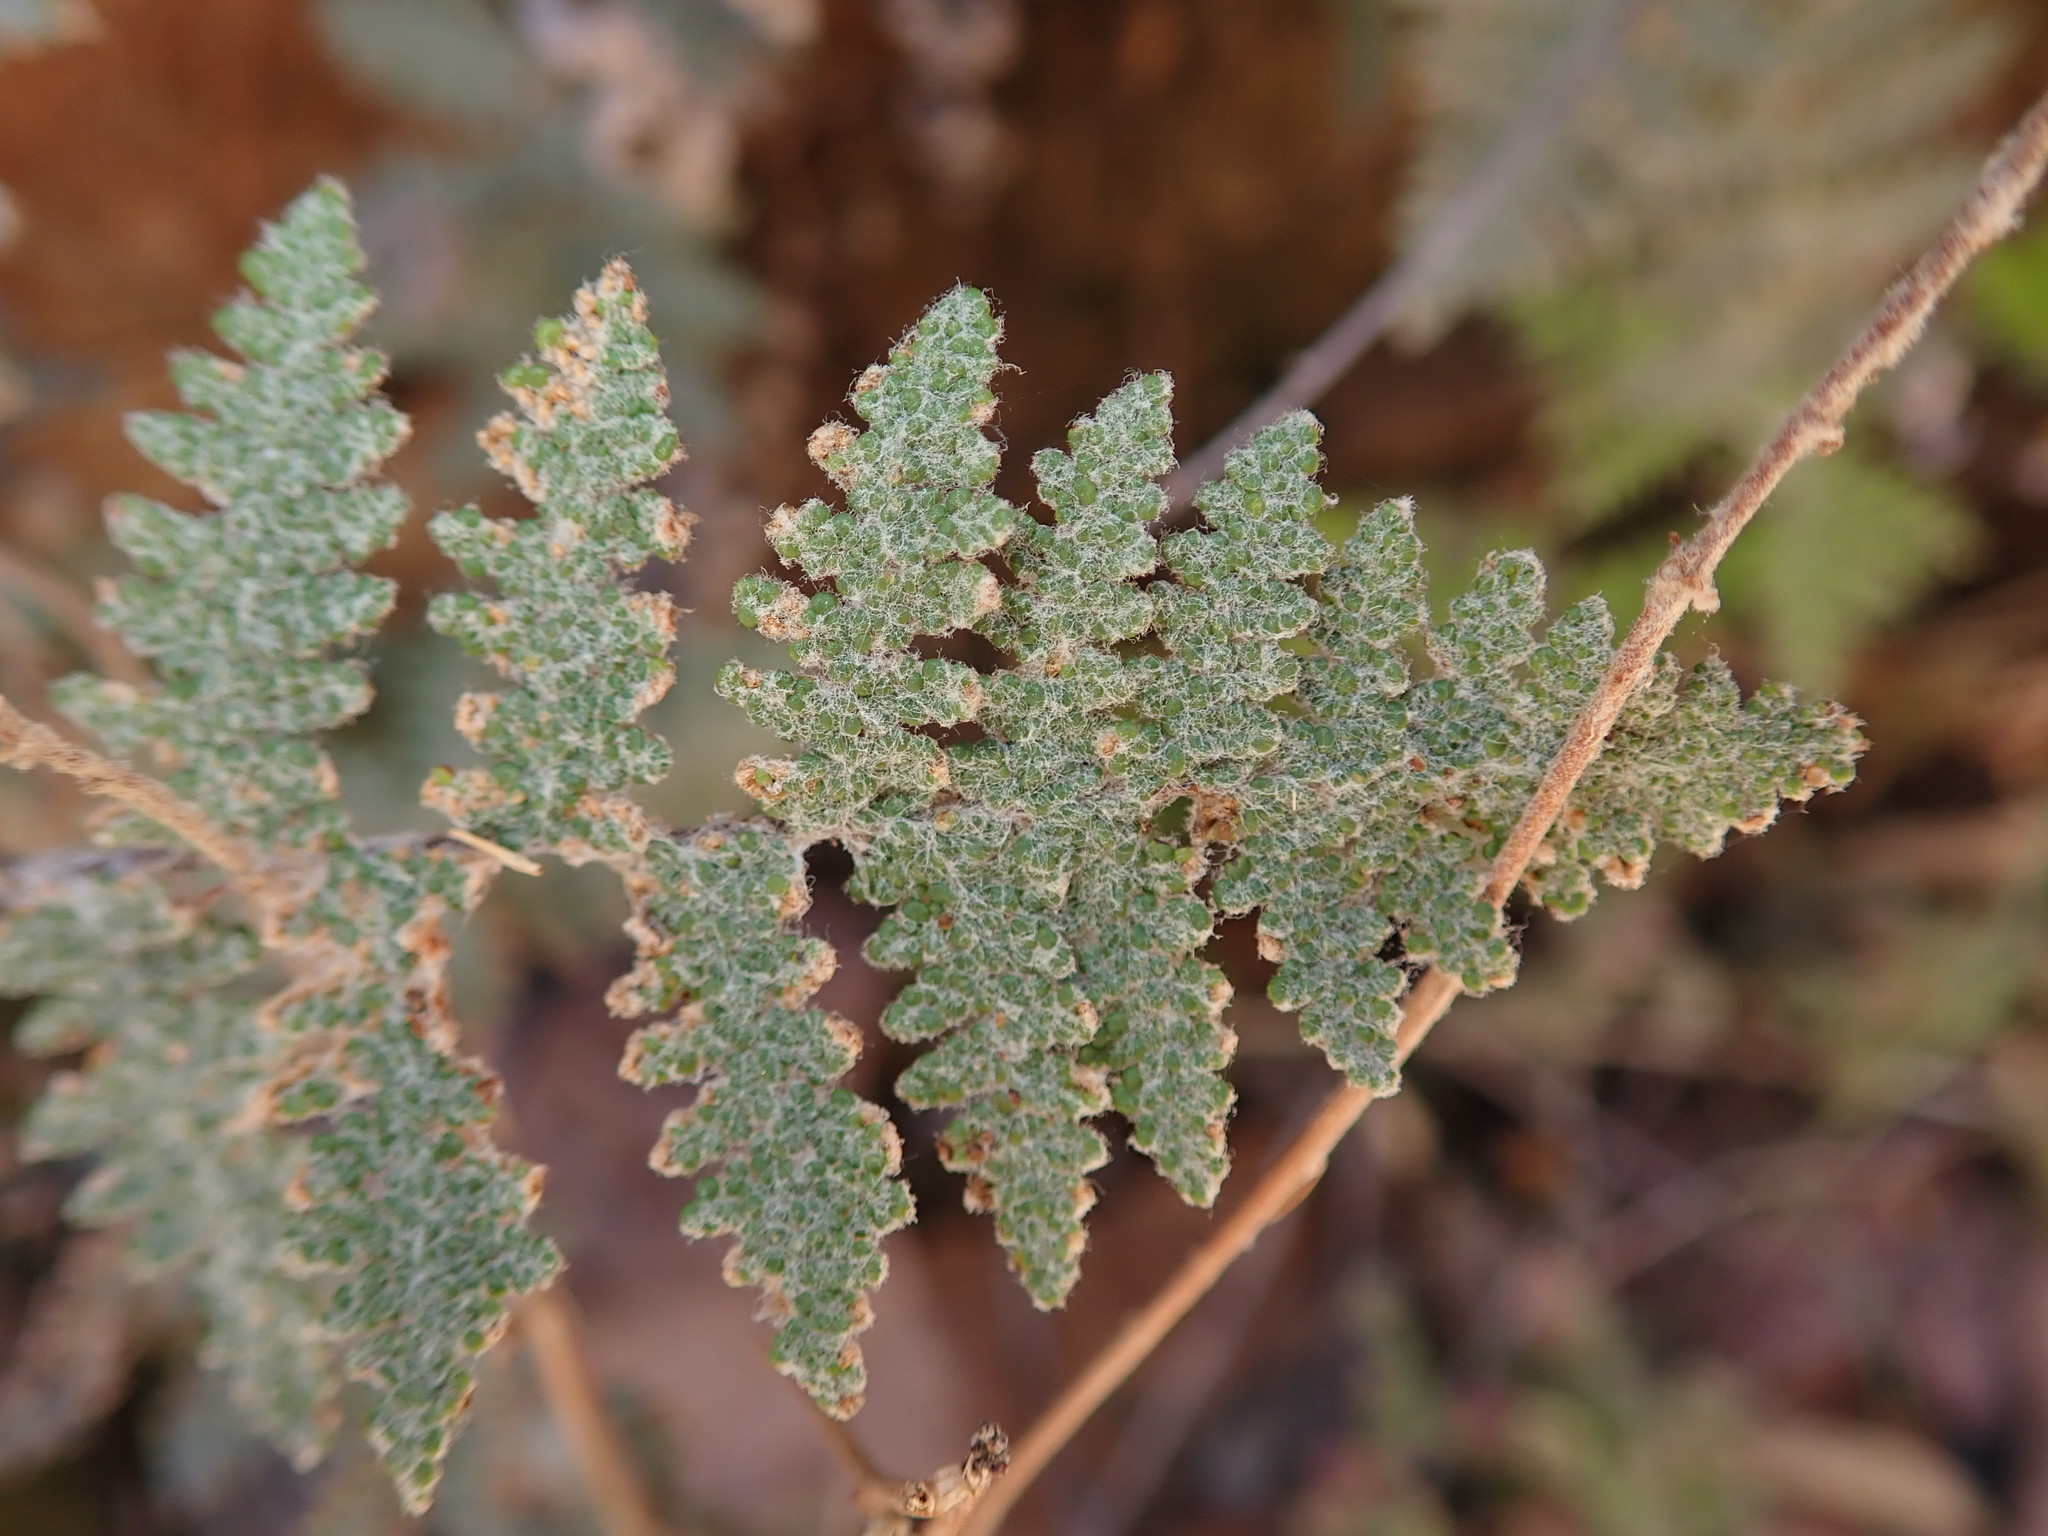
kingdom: Plantae
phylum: Tracheophyta
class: Polypodiopsida
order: Polypodiales
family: Pteridaceae
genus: Myriopteris
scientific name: Myriopteris lindheimeri
